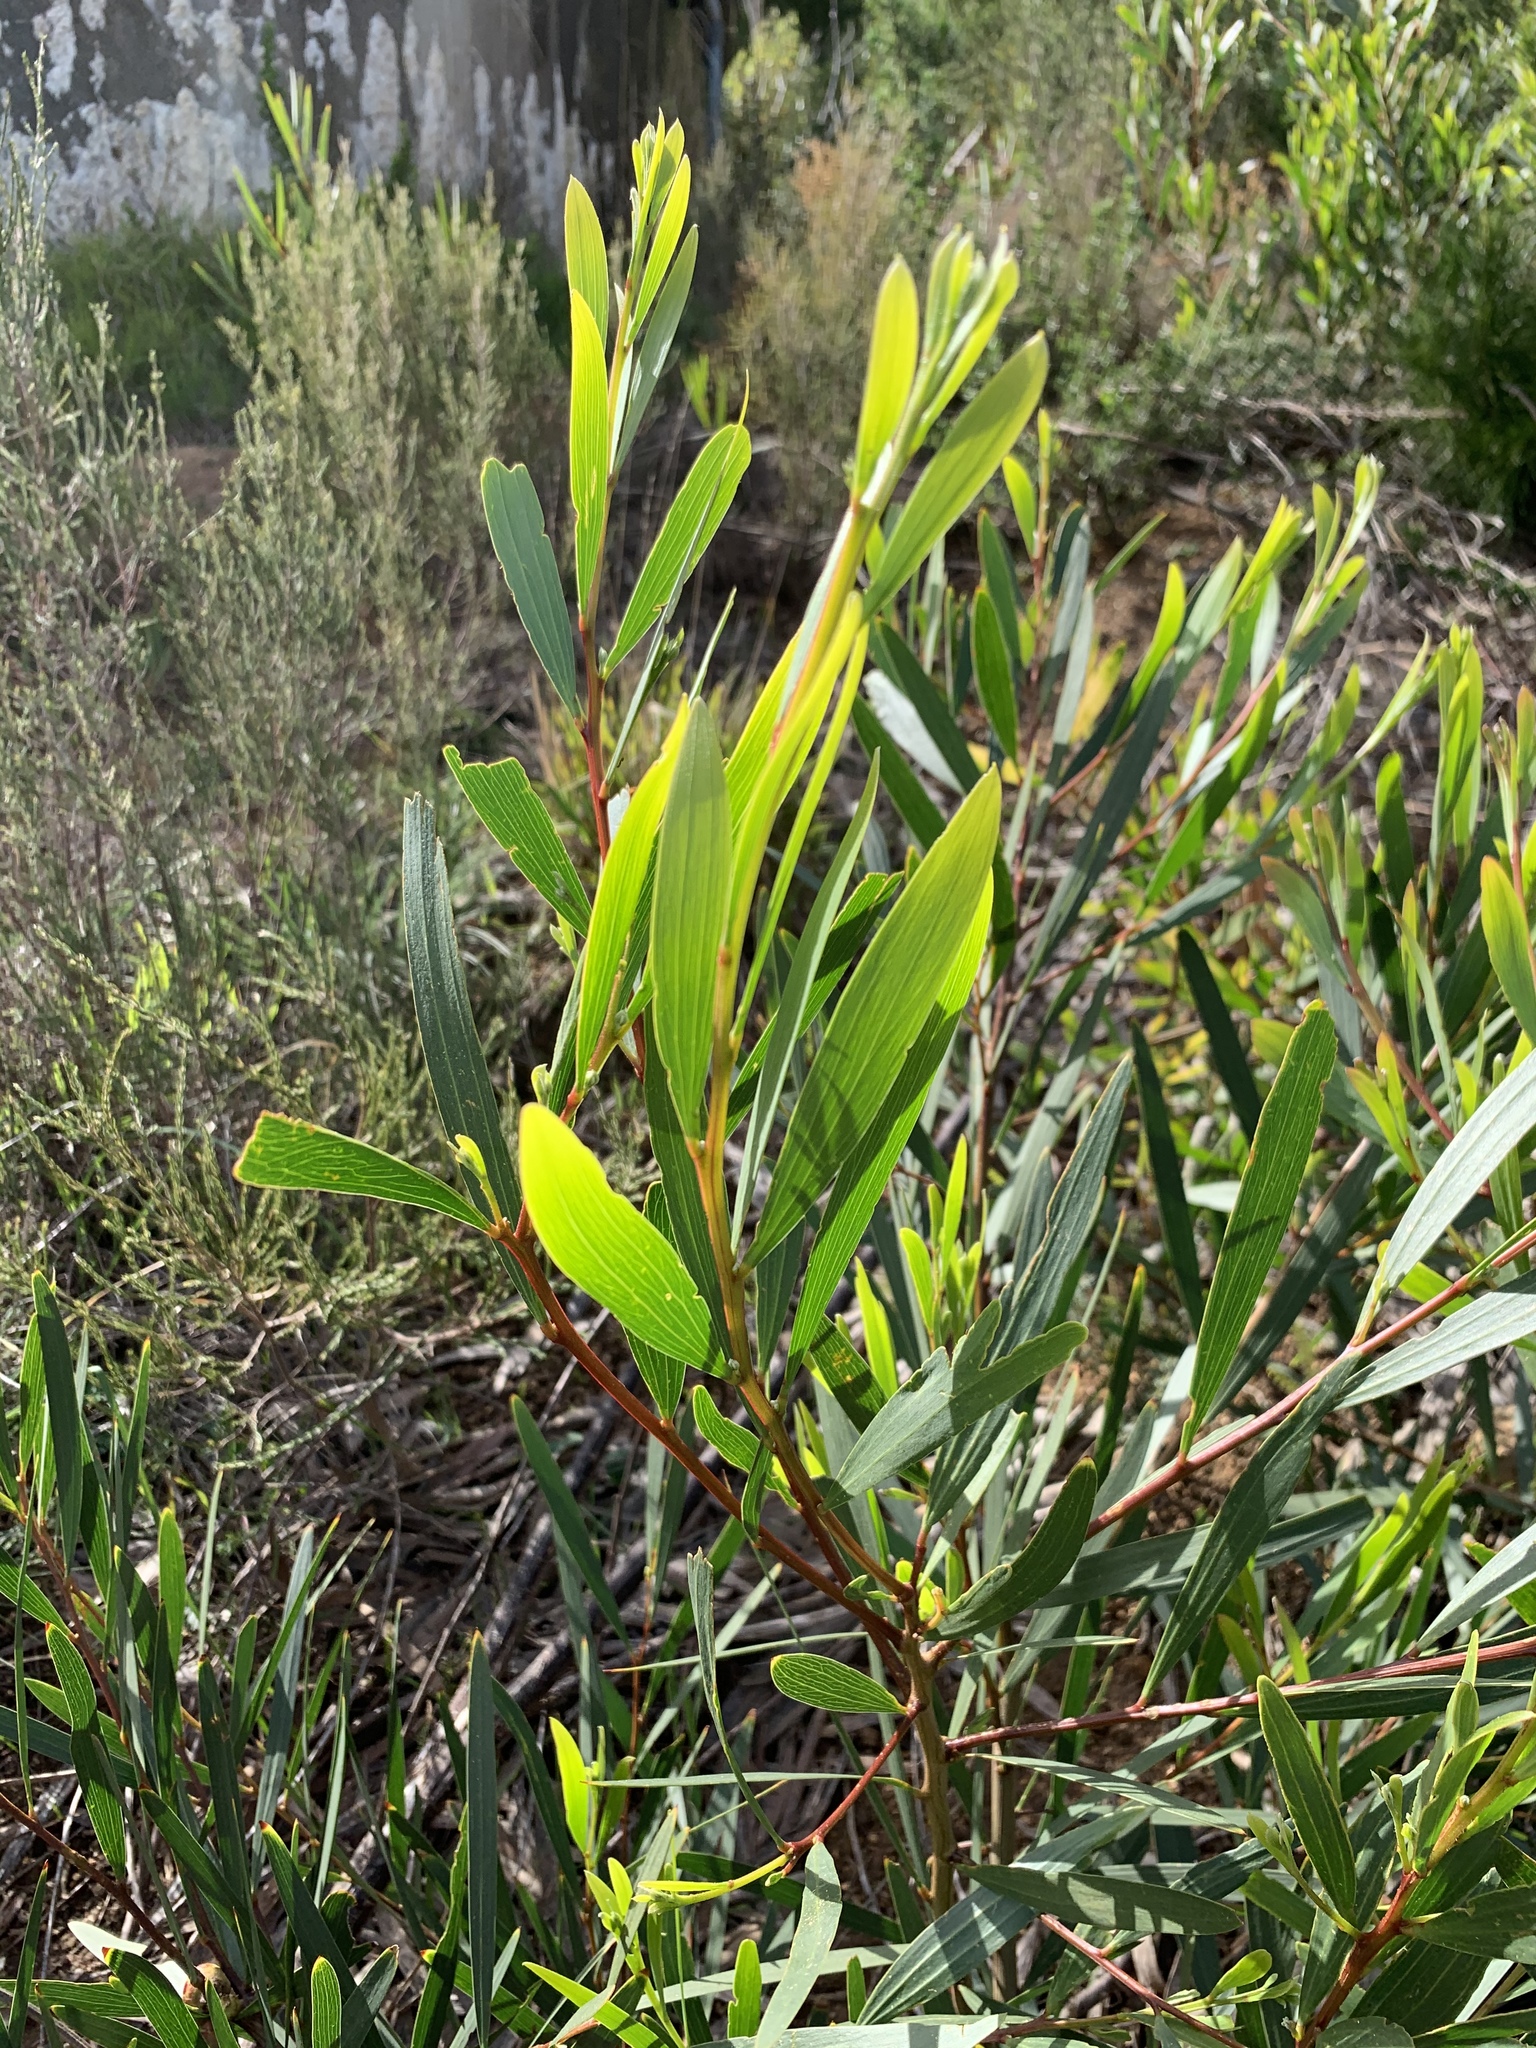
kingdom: Plantae
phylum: Tracheophyta
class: Magnoliopsida
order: Fabales
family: Fabaceae
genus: Acacia
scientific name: Acacia cyclops
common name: Coastal wattle
